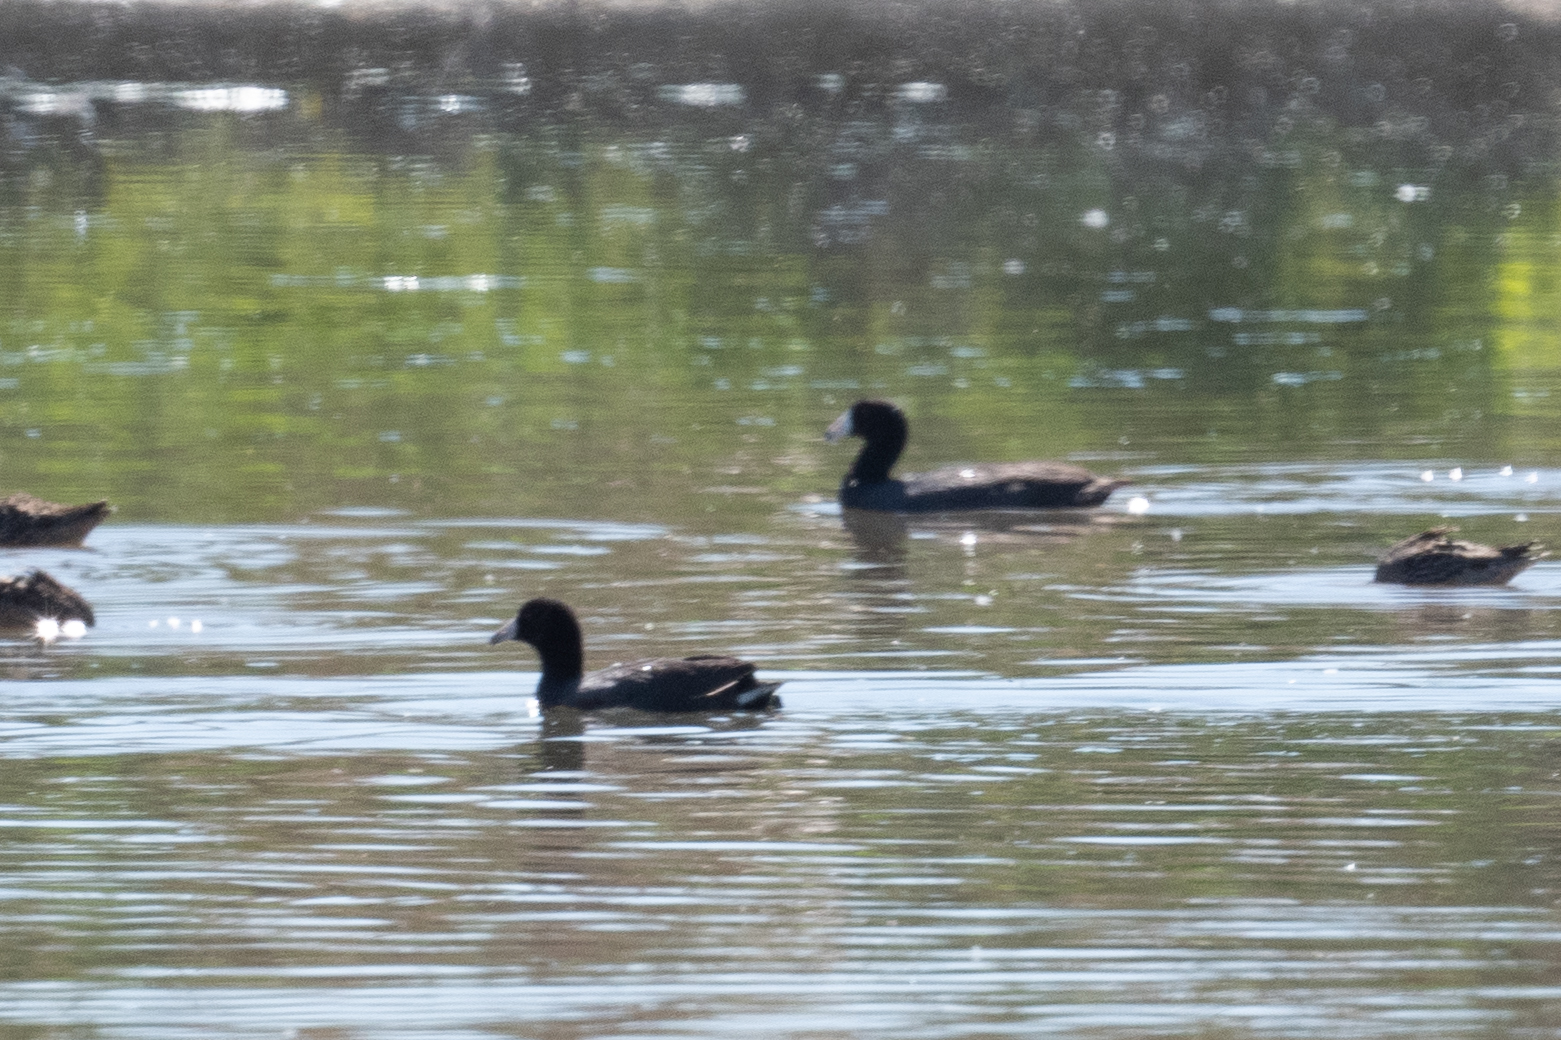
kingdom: Animalia
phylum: Chordata
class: Aves
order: Gruiformes
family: Rallidae
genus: Fulica
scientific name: Fulica americana
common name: American coot
